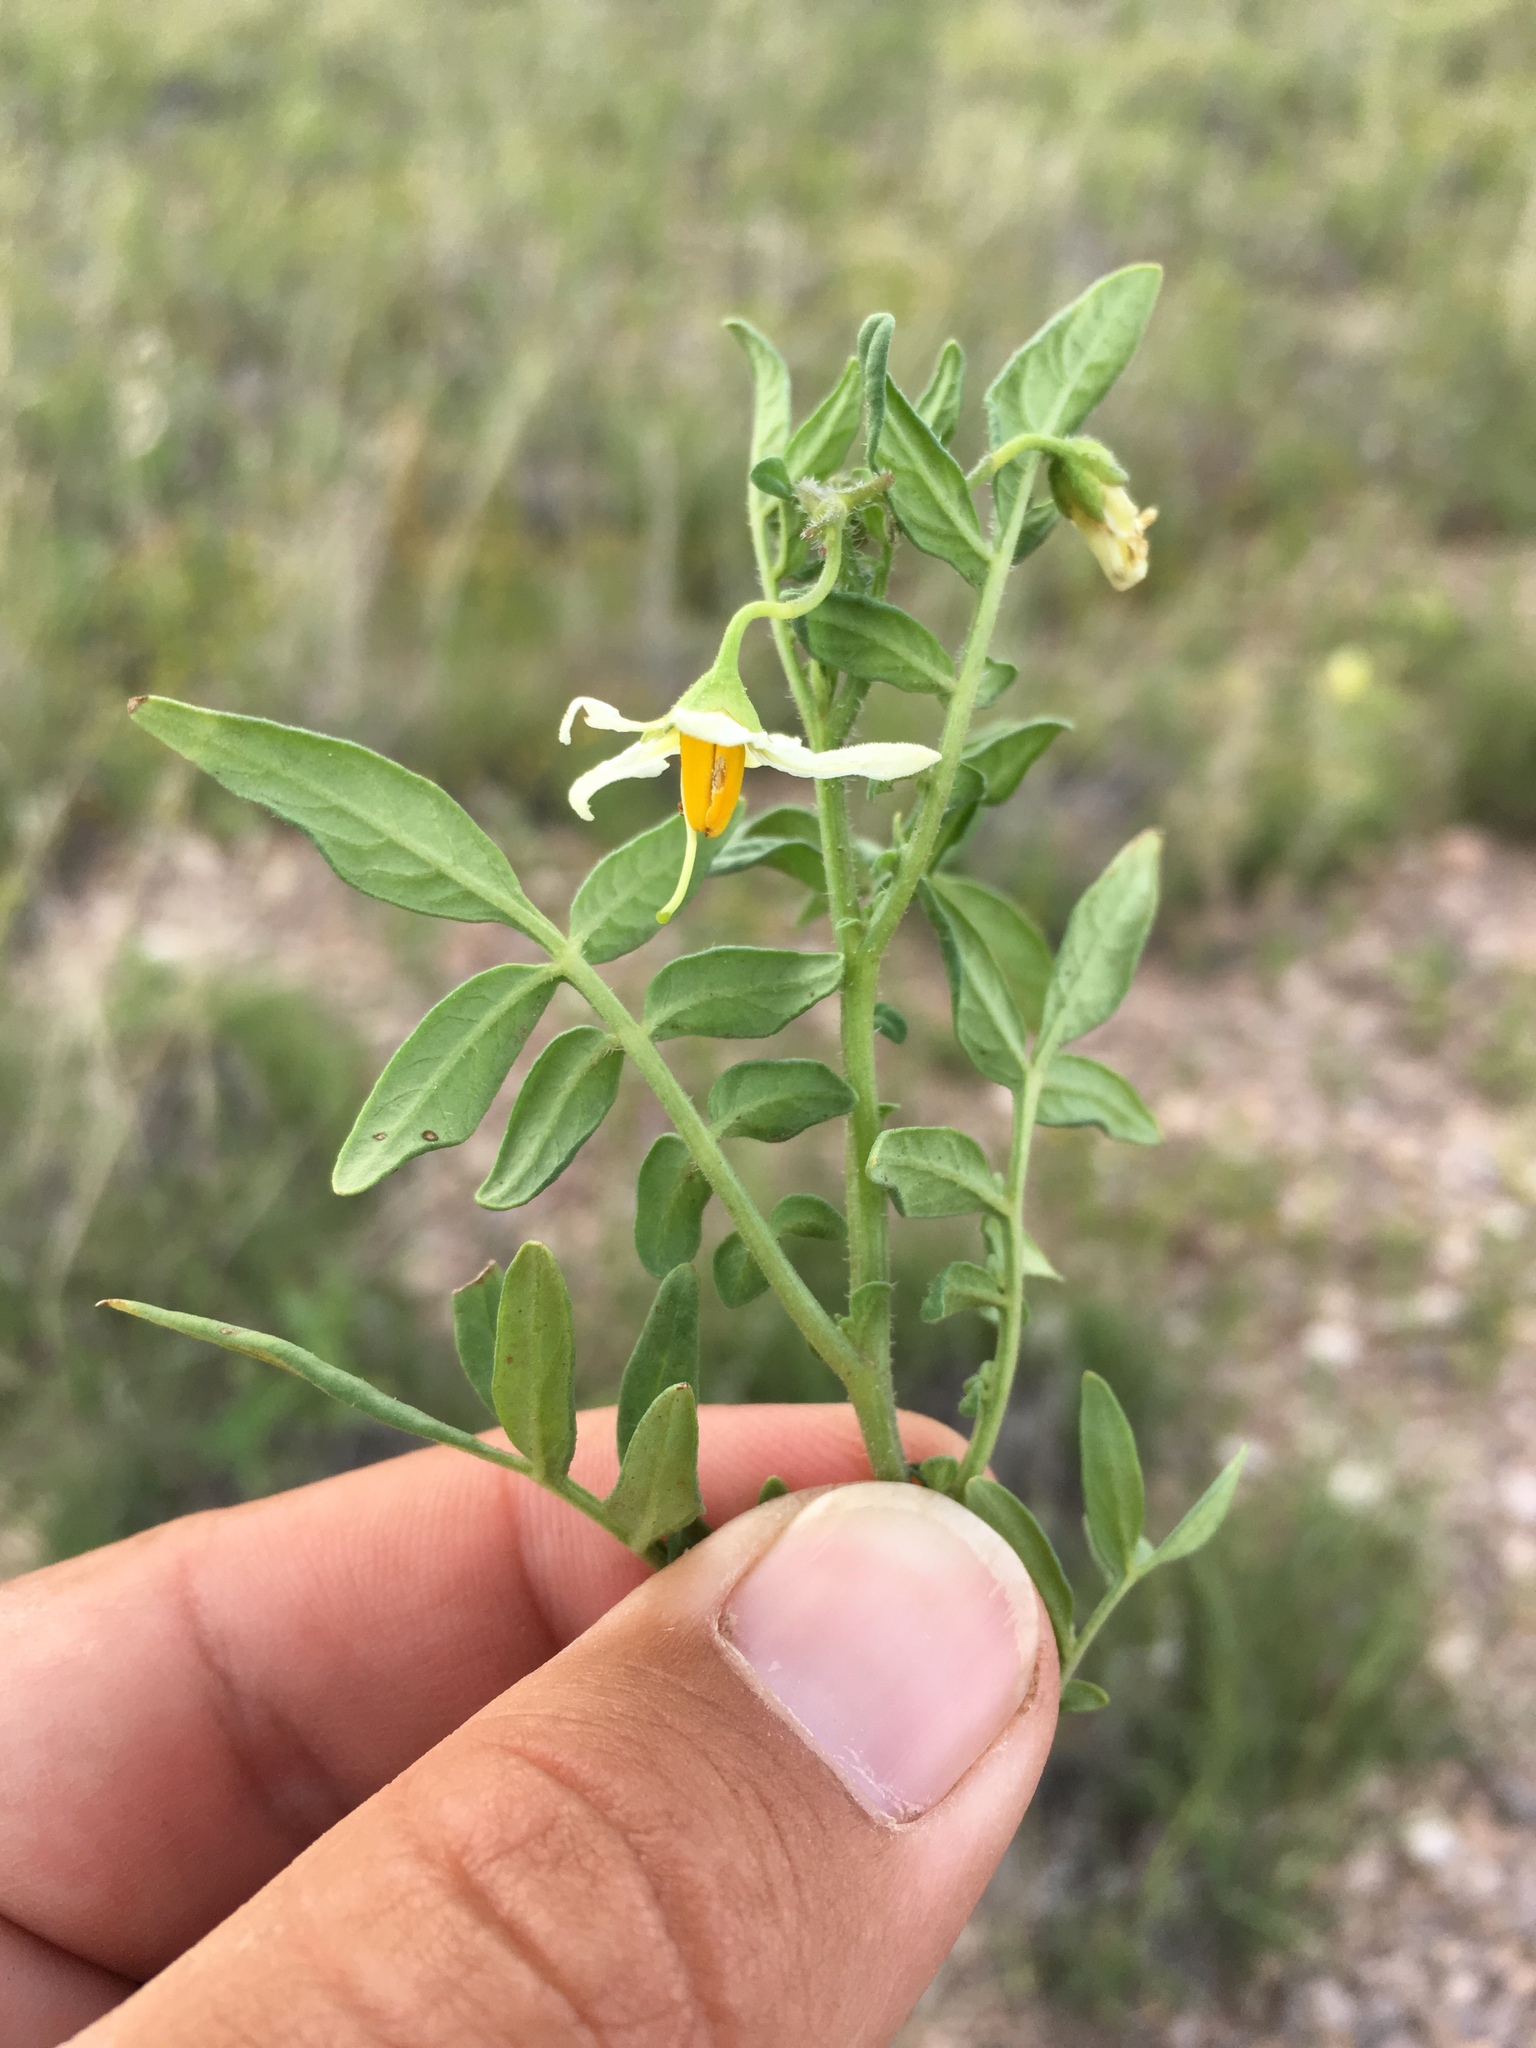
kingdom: Plantae
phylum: Tracheophyta
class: Magnoliopsida
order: Solanales
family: Solanaceae
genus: Solanum
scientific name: Solanum jamesii
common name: Wild potato
